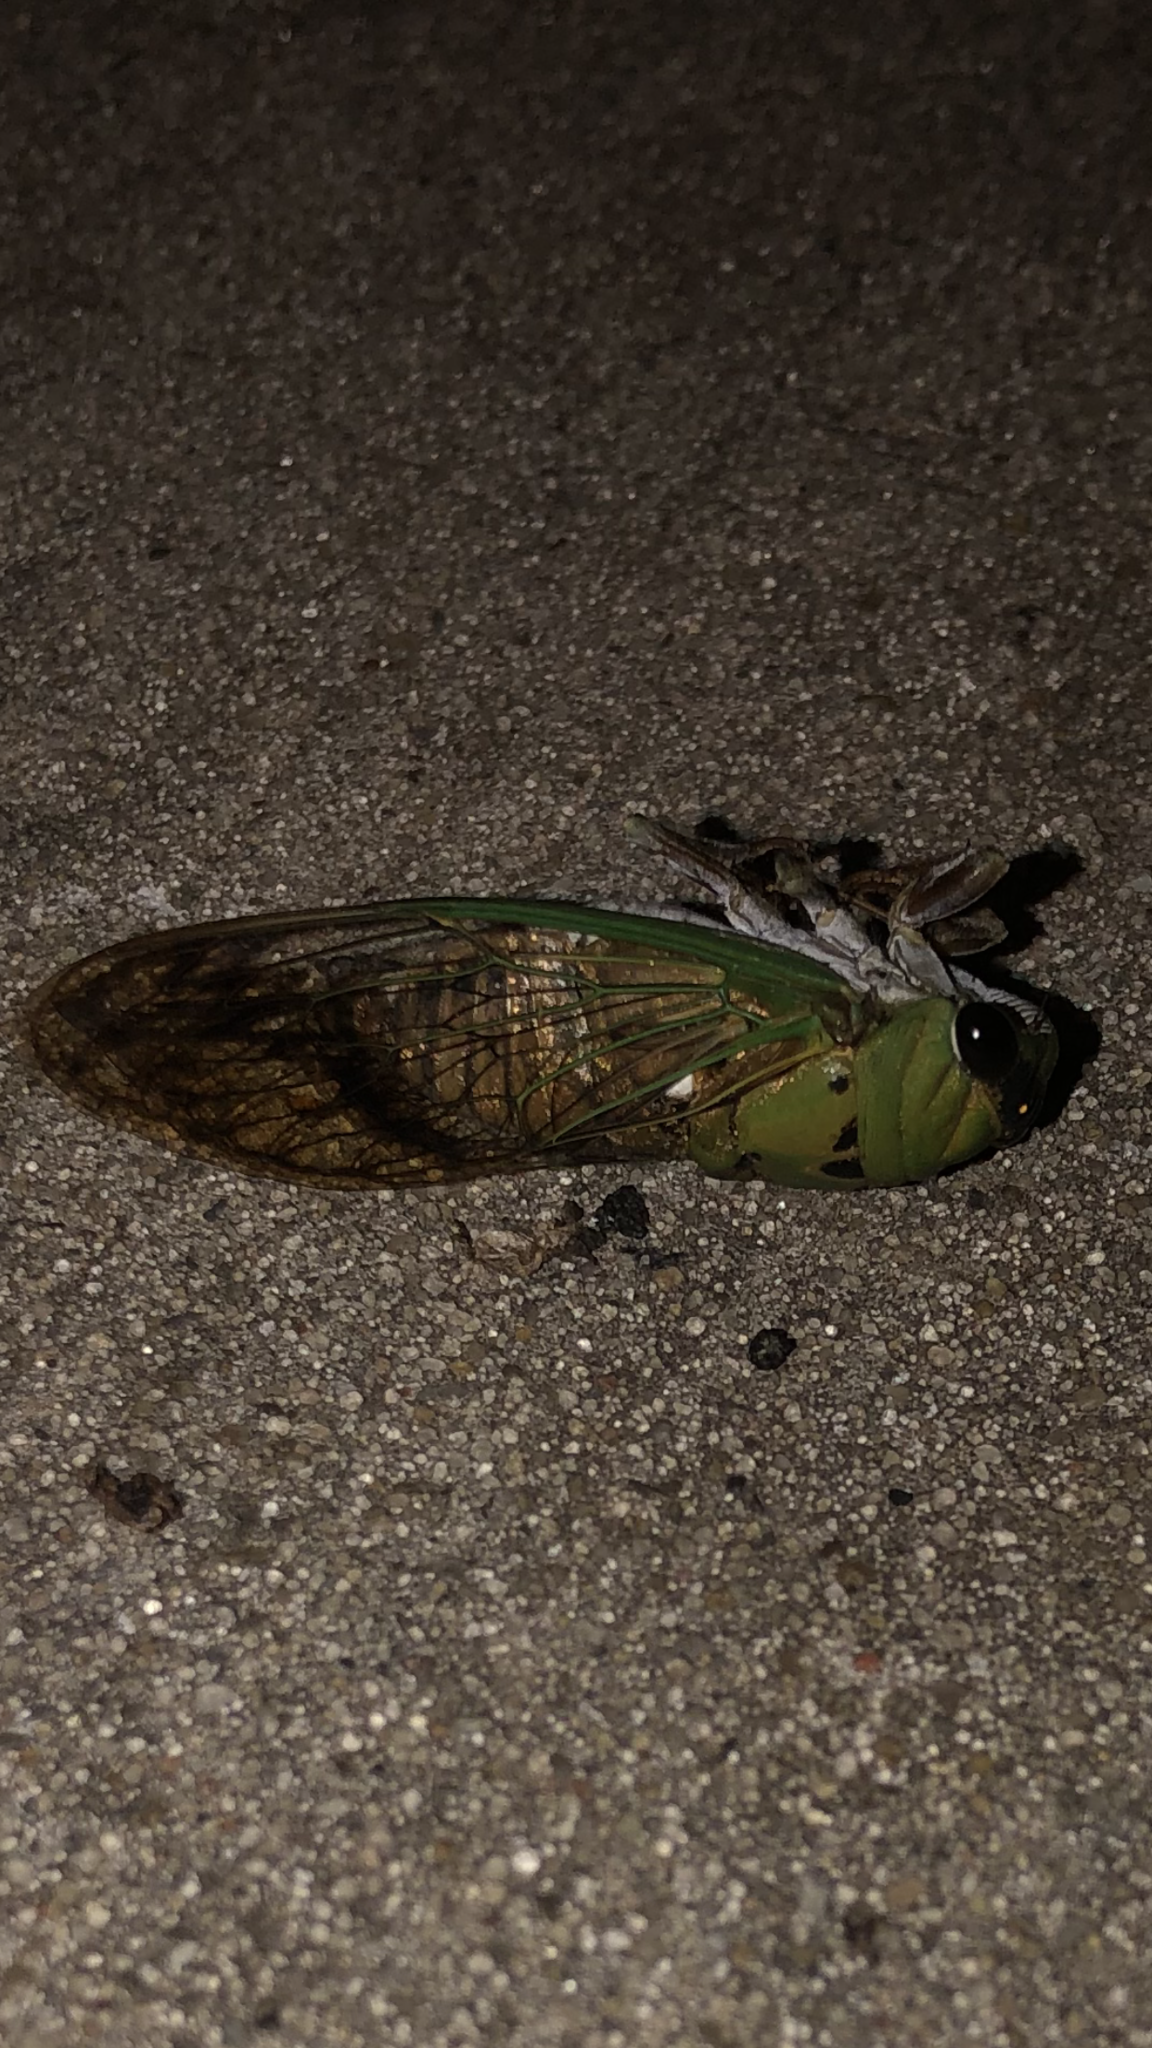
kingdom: Animalia
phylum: Arthropoda
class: Insecta
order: Hemiptera
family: Cicadidae
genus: Neotibicen
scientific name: Neotibicen superbus
